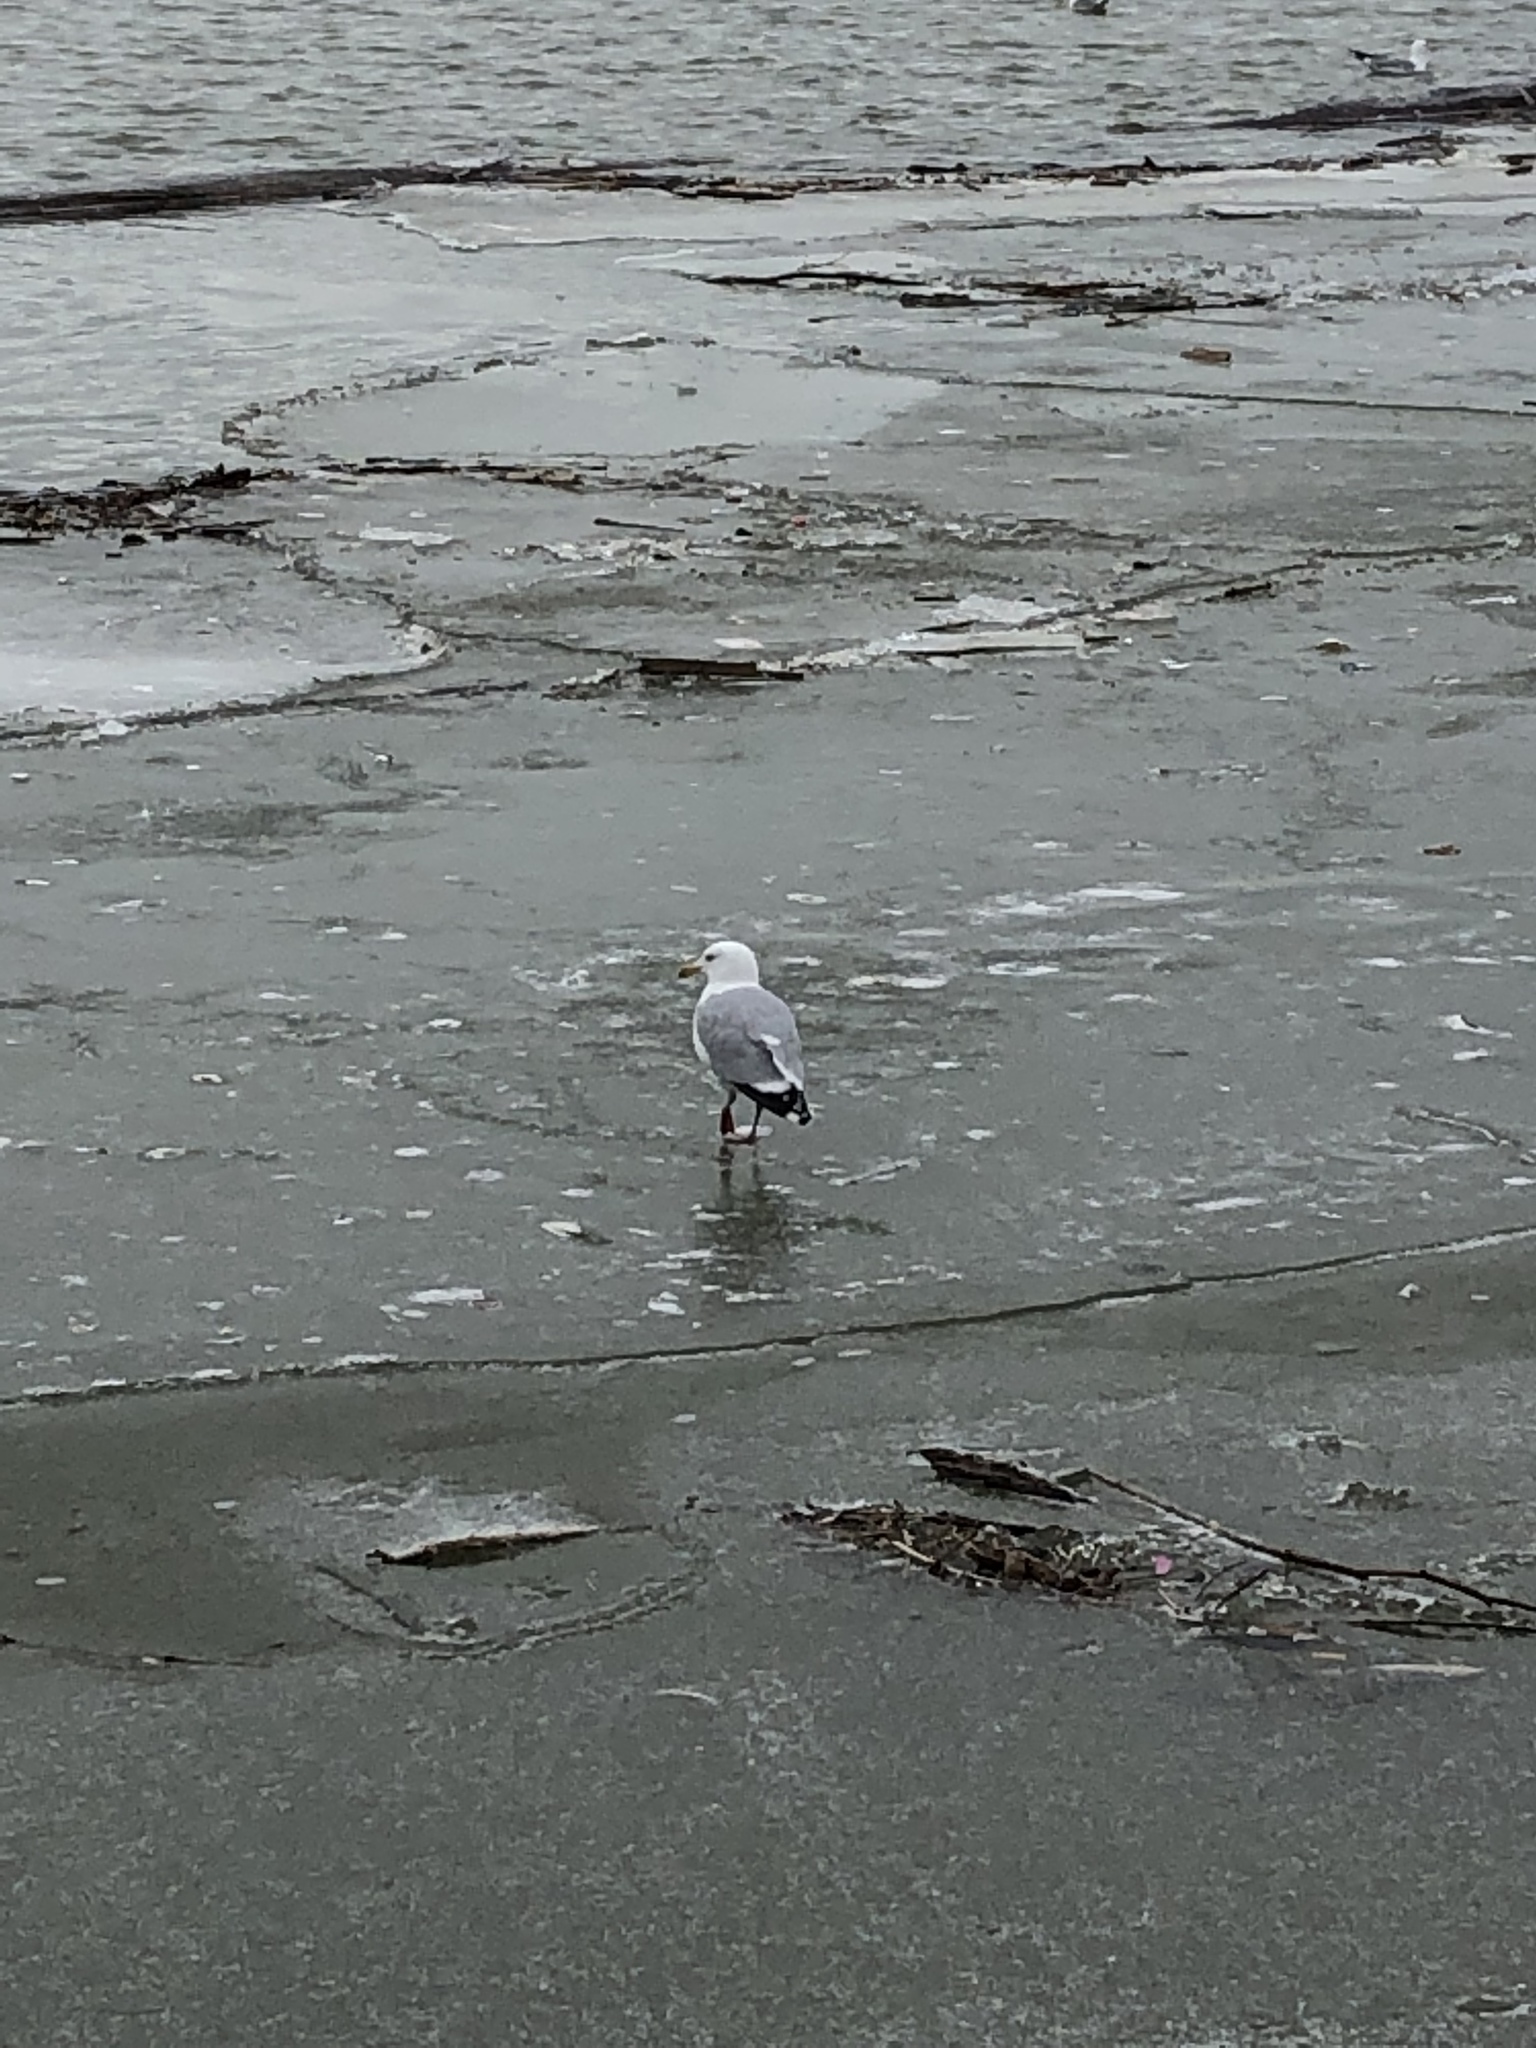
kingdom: Animalia
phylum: Chordata
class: Aves
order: Charadriiformes
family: Laridae
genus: Larus
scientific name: Larus argentatus
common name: Herring gull
